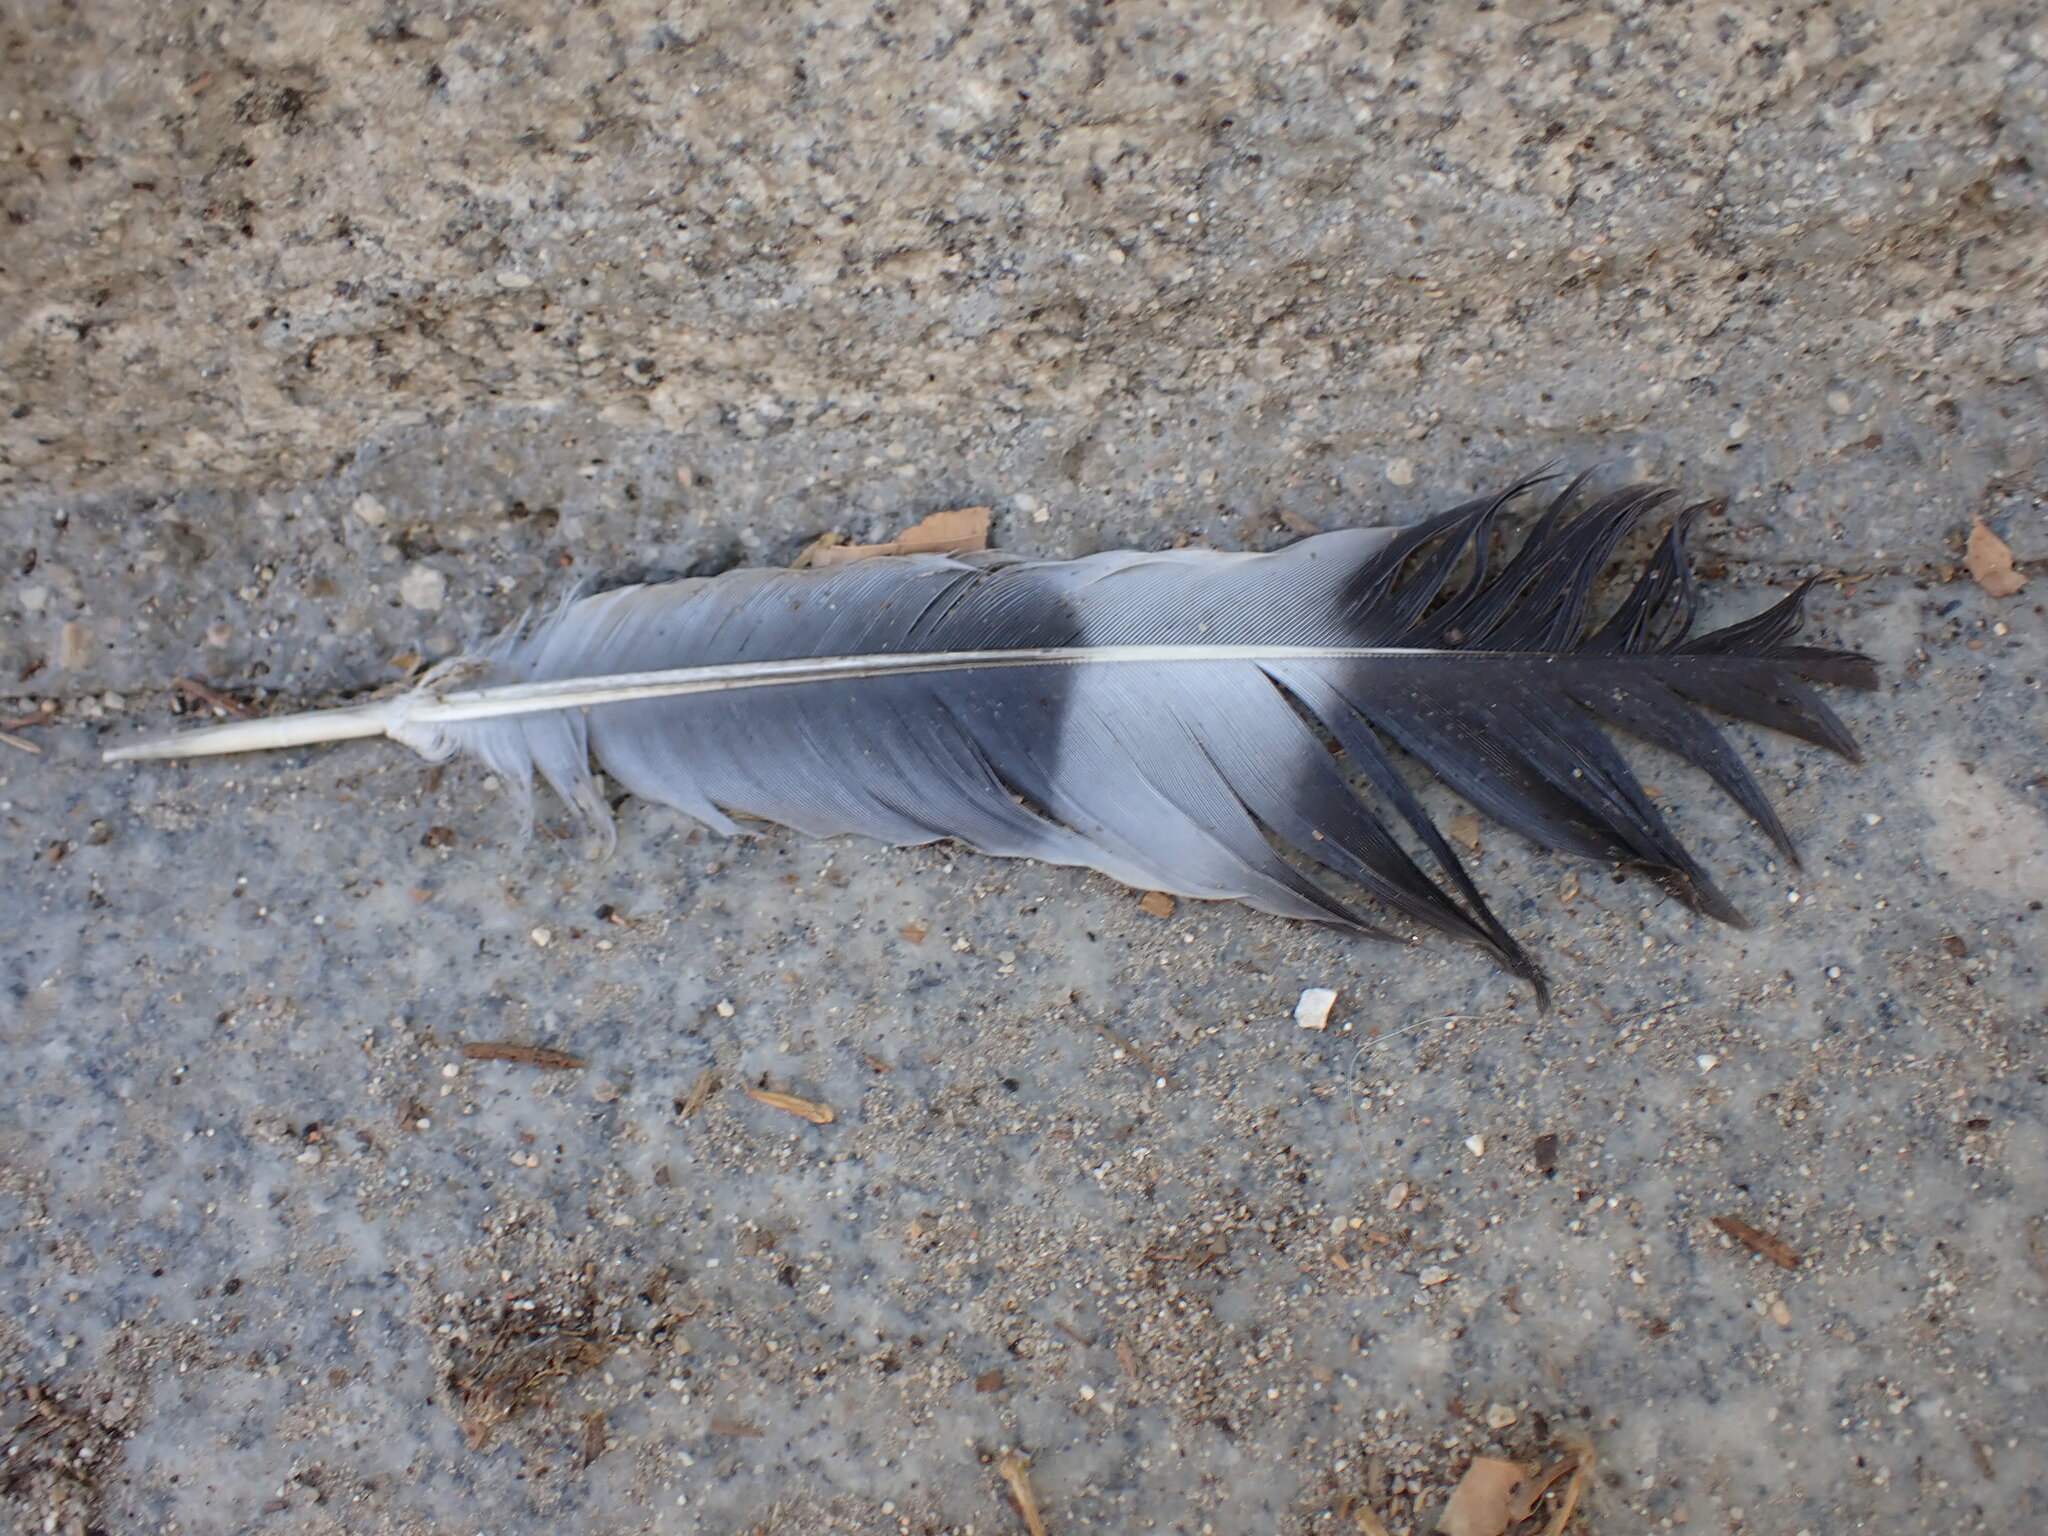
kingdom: Animalia
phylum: Chordata
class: Aves
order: Columbiformes
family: Columbidae
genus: Columba
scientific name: Columba palumbus
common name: Common wood pigeon
